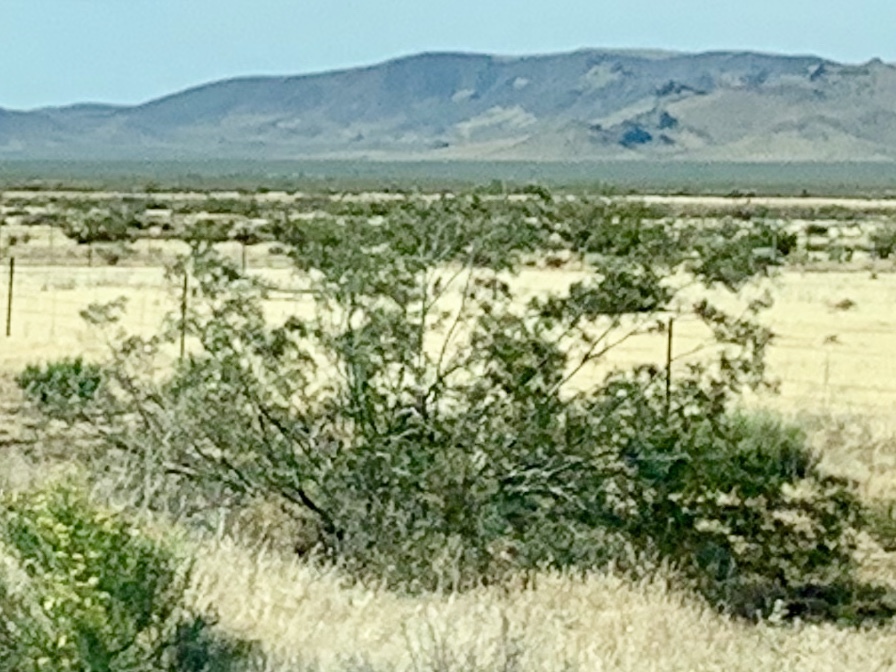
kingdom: Plantae
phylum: Tracheophyta
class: Magnoliopsida
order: Zygophyllales
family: Zygophyllaceae
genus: Larrea
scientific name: Larrea tridentata
